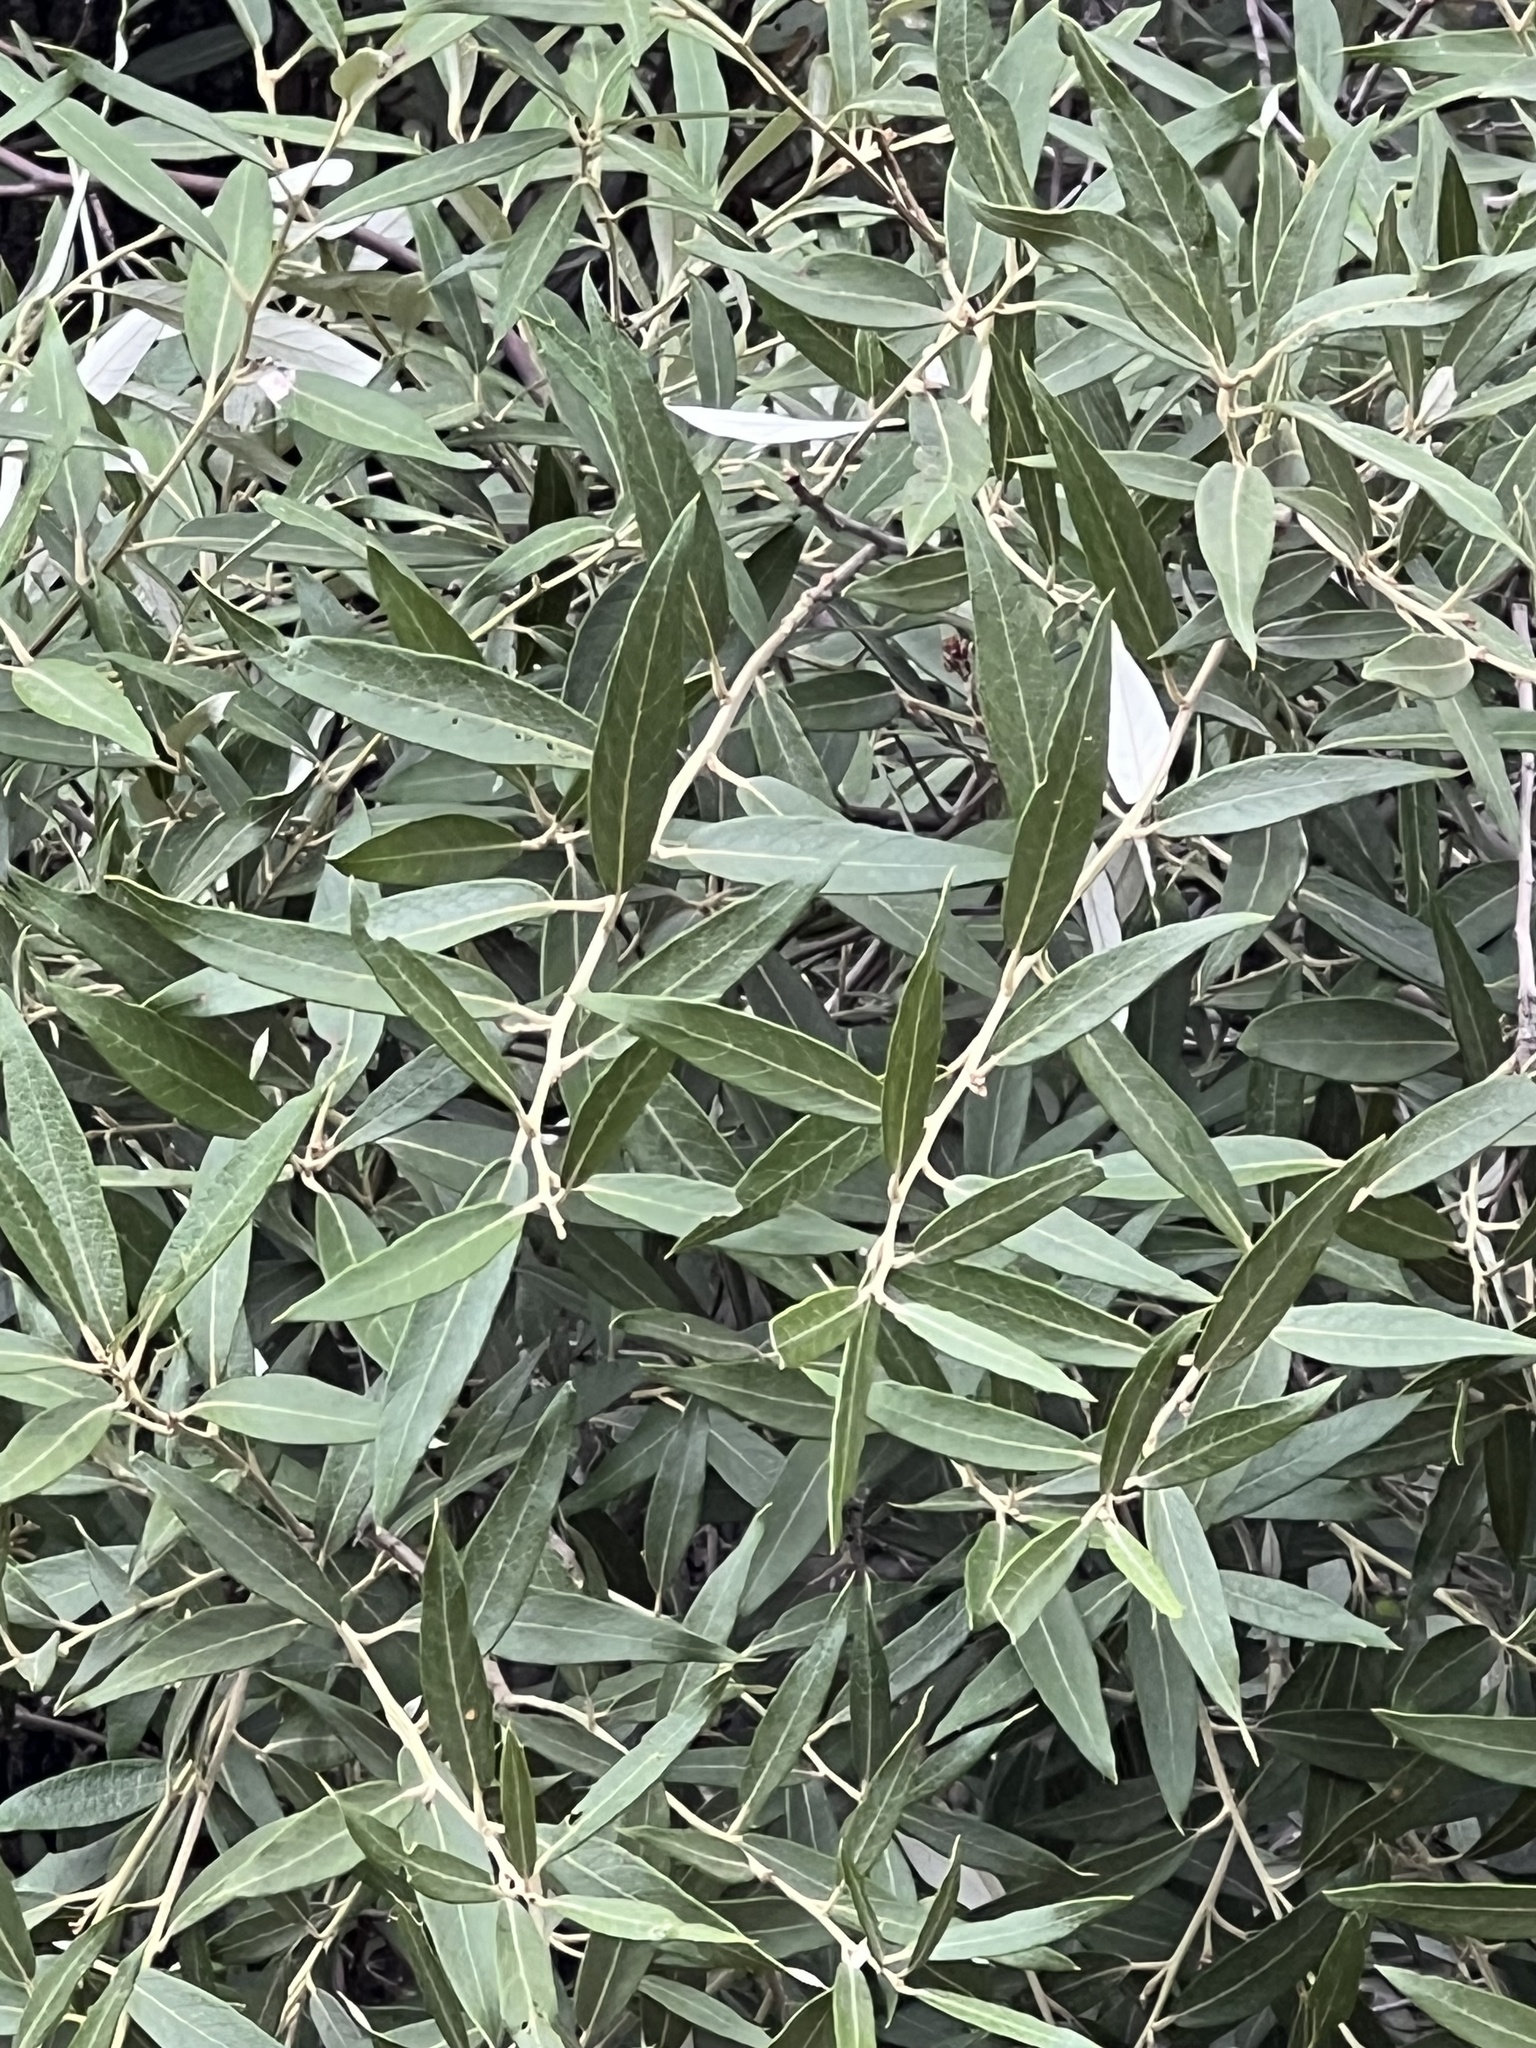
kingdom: Plantae
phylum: Tracheophyta
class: Magnoliopsida
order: Fagales
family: Fagaceae
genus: Quercus
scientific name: Quercus hypoleucoides
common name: Silverleaf oak
